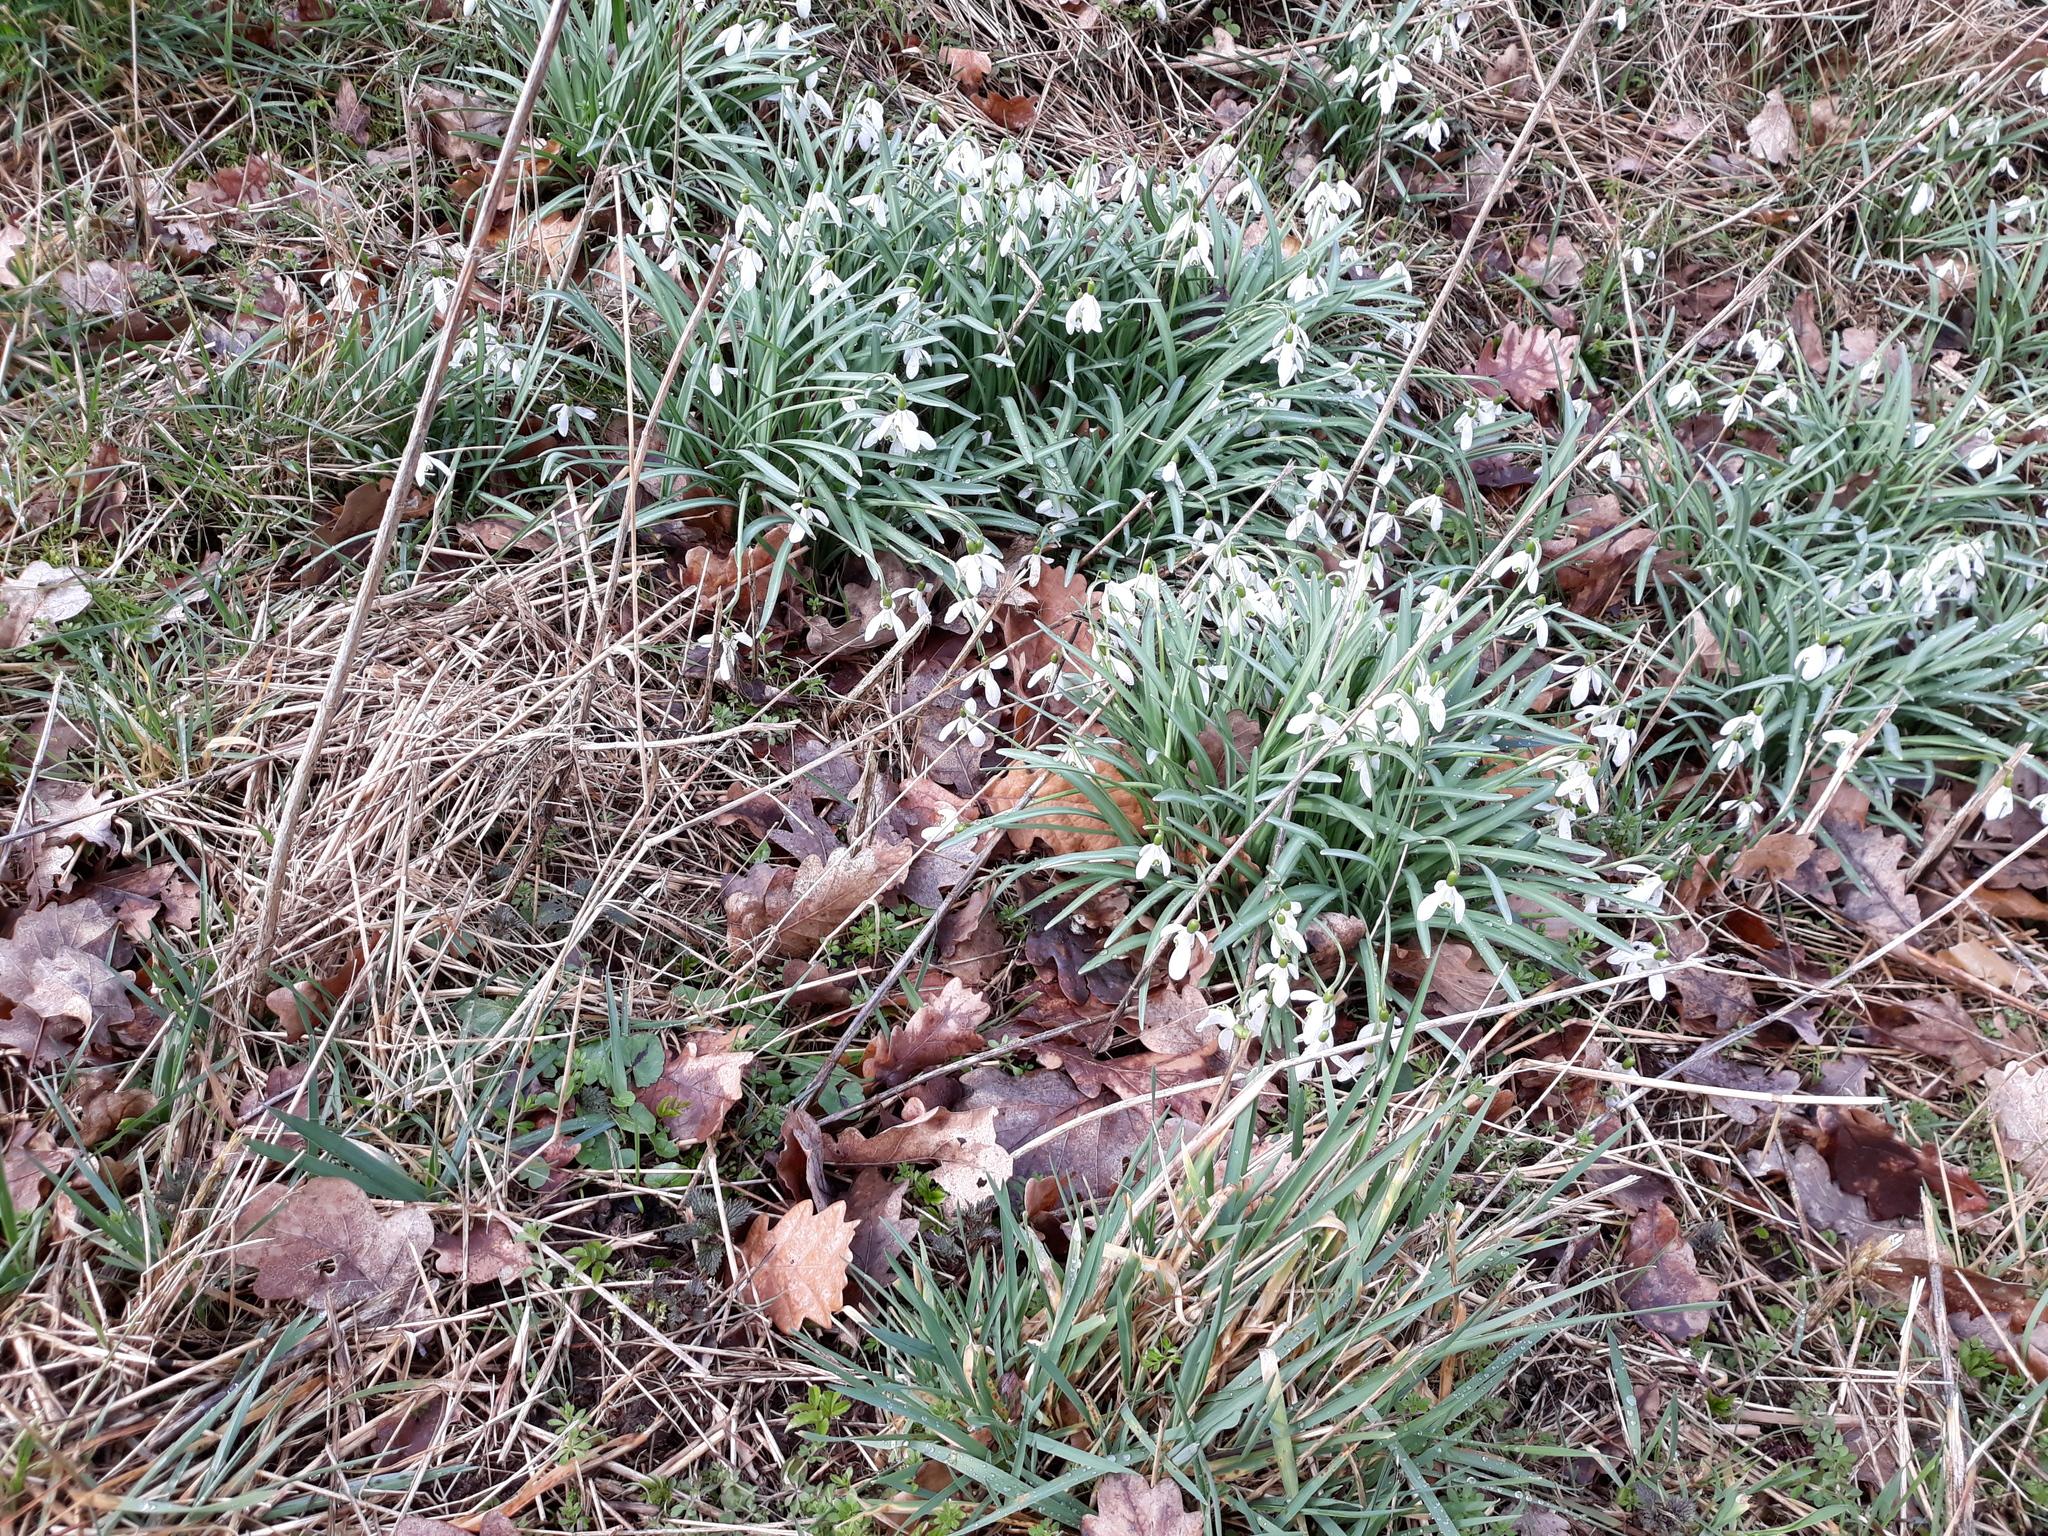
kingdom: Plantae
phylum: Tracheophyta
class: Liliopsida
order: Asparagales
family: Amaryllidaceae
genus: Galanthus
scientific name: Galanthus nivalis
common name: Snowdrop
